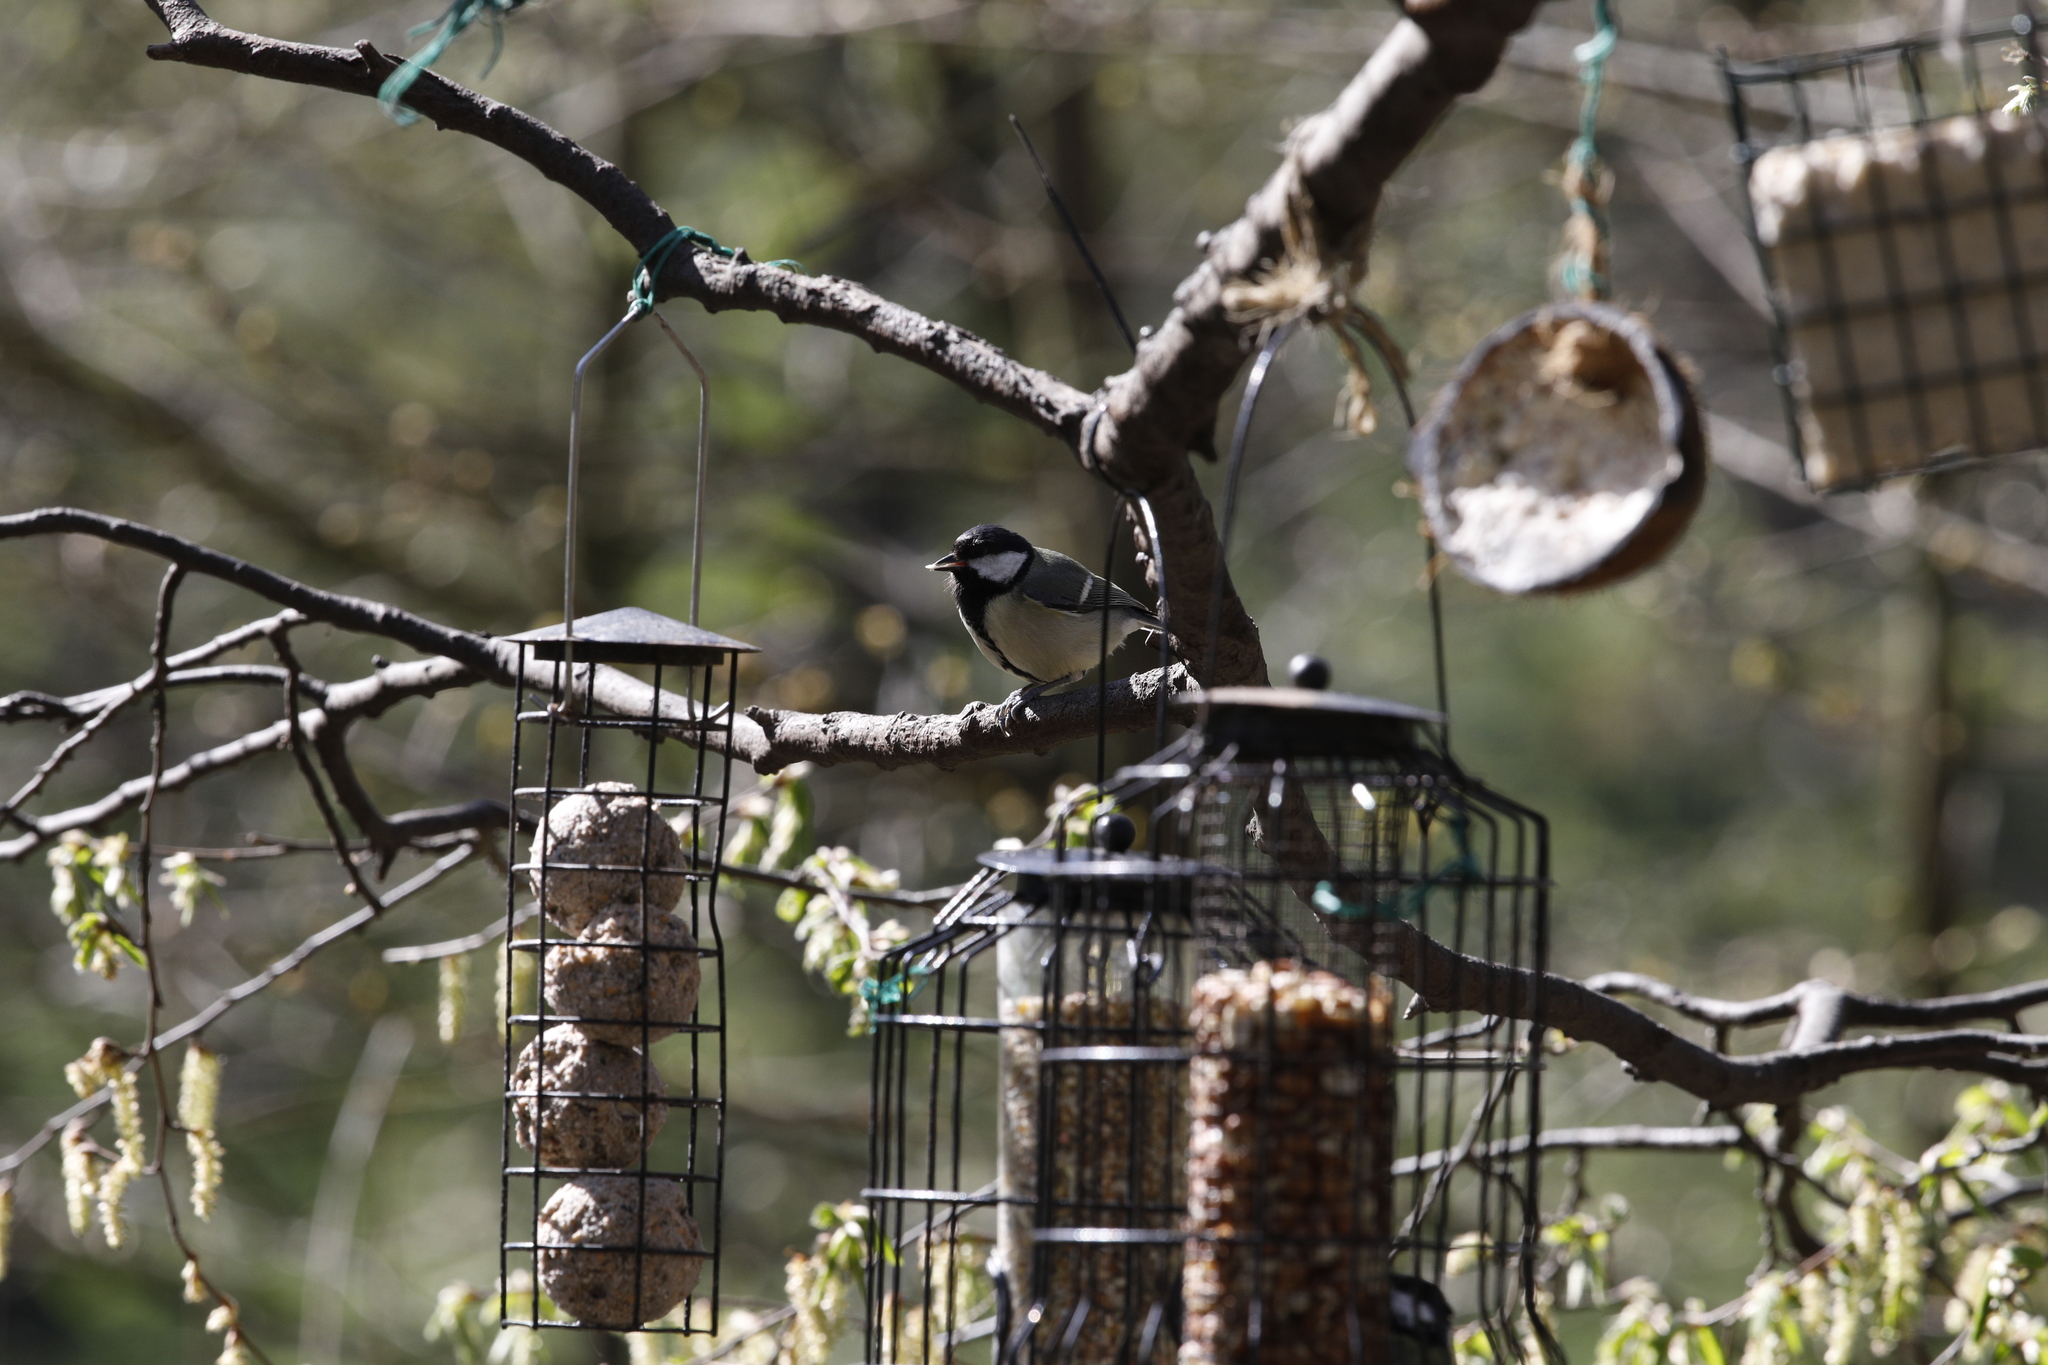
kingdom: Animalia
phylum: Chordata
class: Aves
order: Passeriformes
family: Paridae
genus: Parus
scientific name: Parus major
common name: Great tit
